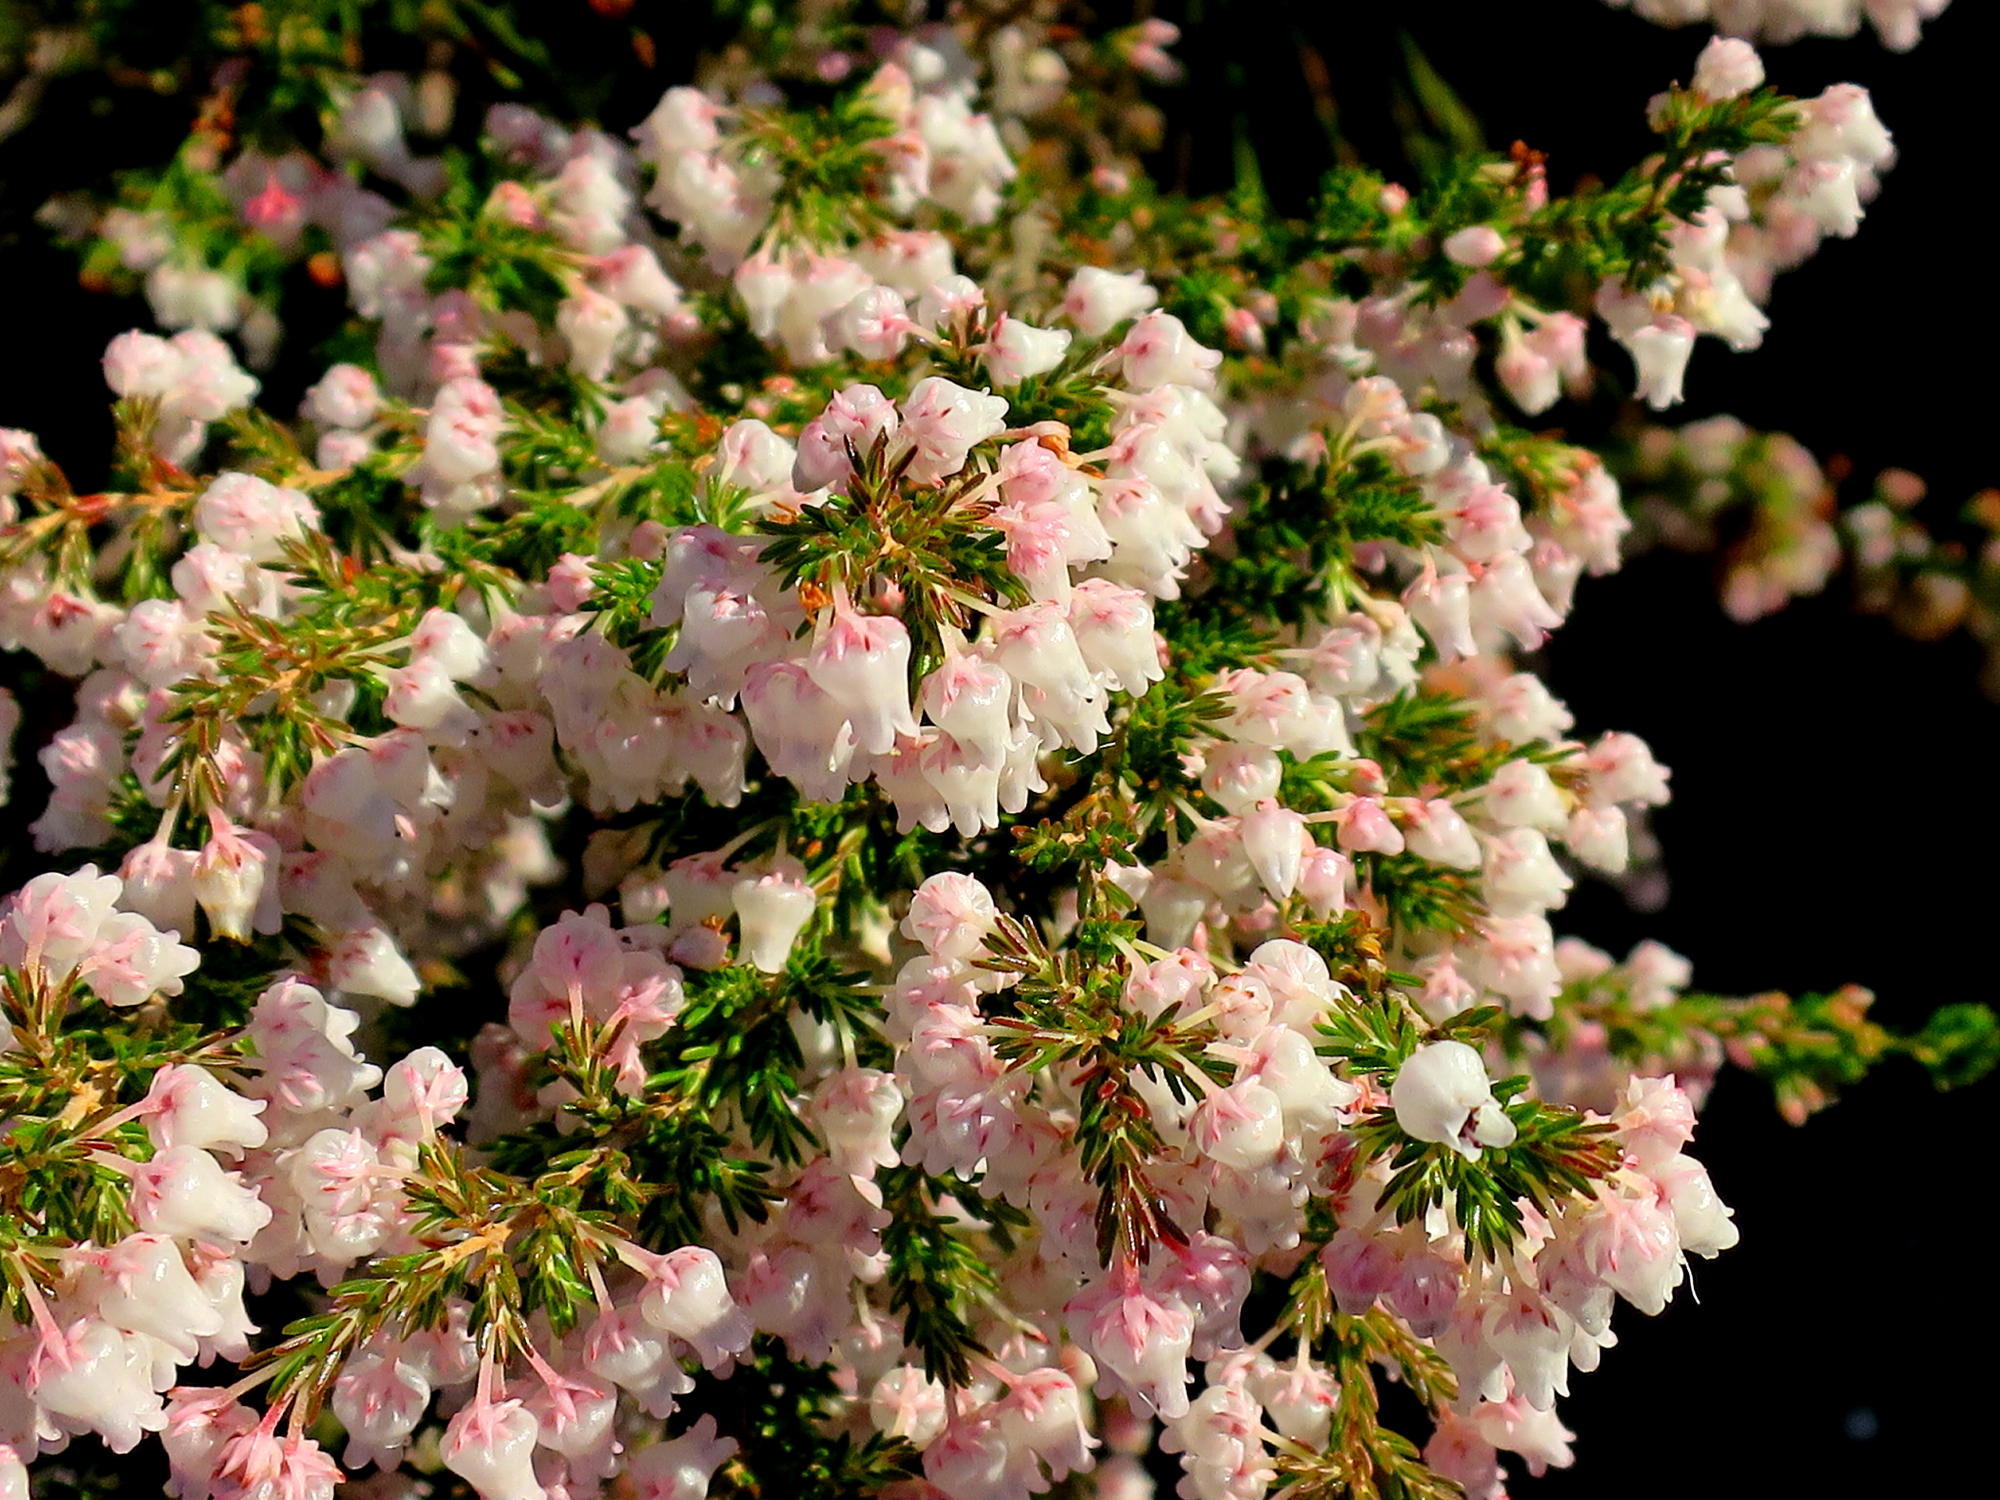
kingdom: Plantae
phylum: Tracheophyta
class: Magnoliopsida
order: Ericales
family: Ericaceae
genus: Erica
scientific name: Erica glomiflora
